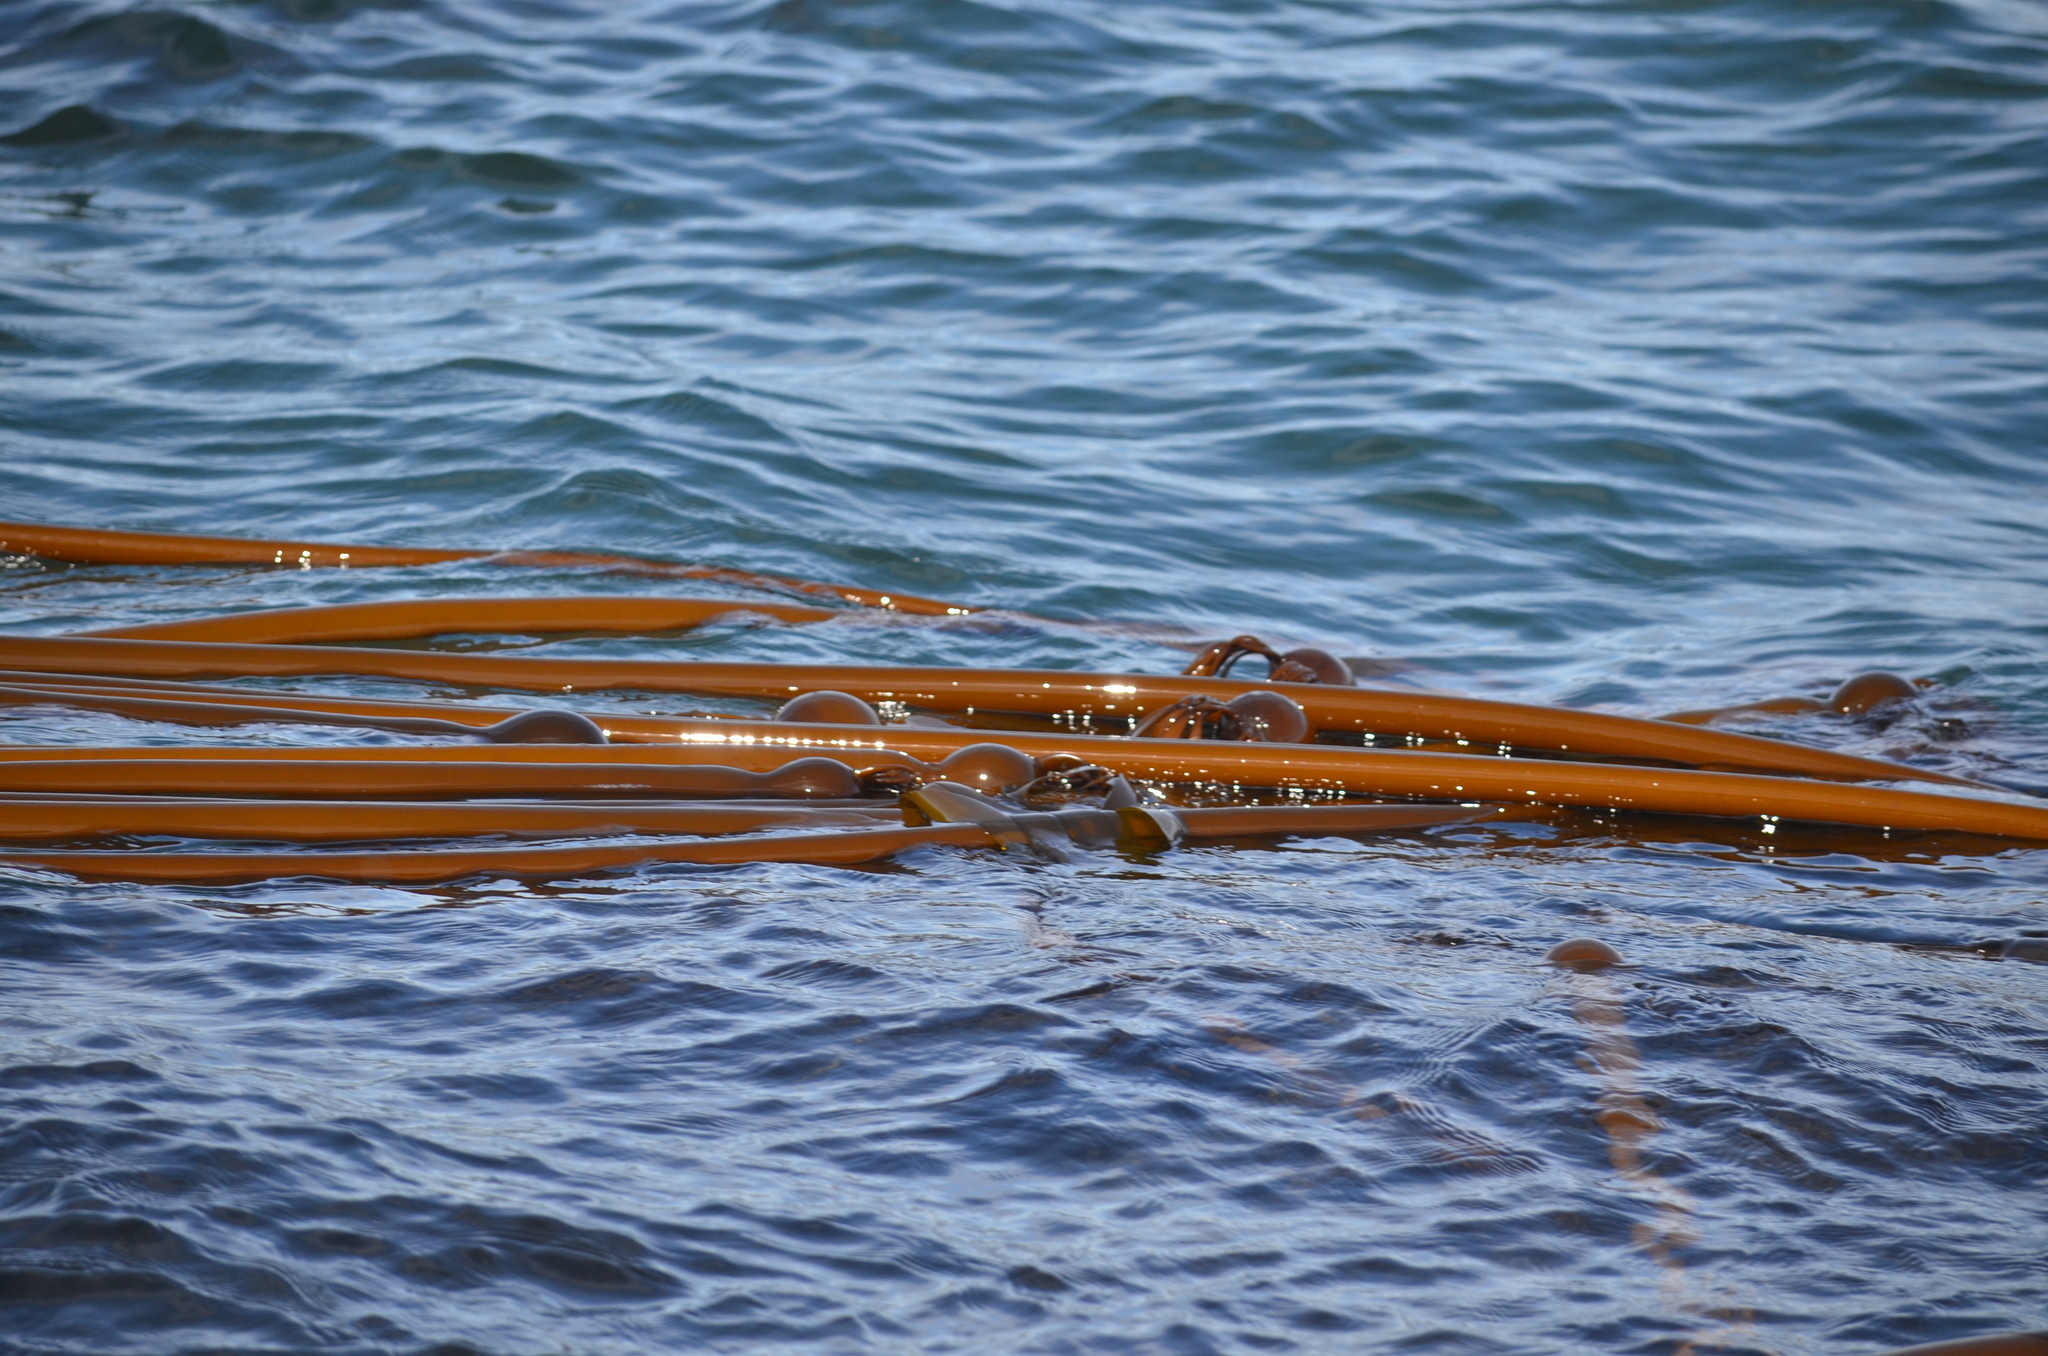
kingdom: Chromista
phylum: Ochrophyta
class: Phaeophyceae
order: Laminariales
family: Laminariaceae
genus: Nereocystis
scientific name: Nereocystis luetkeana
